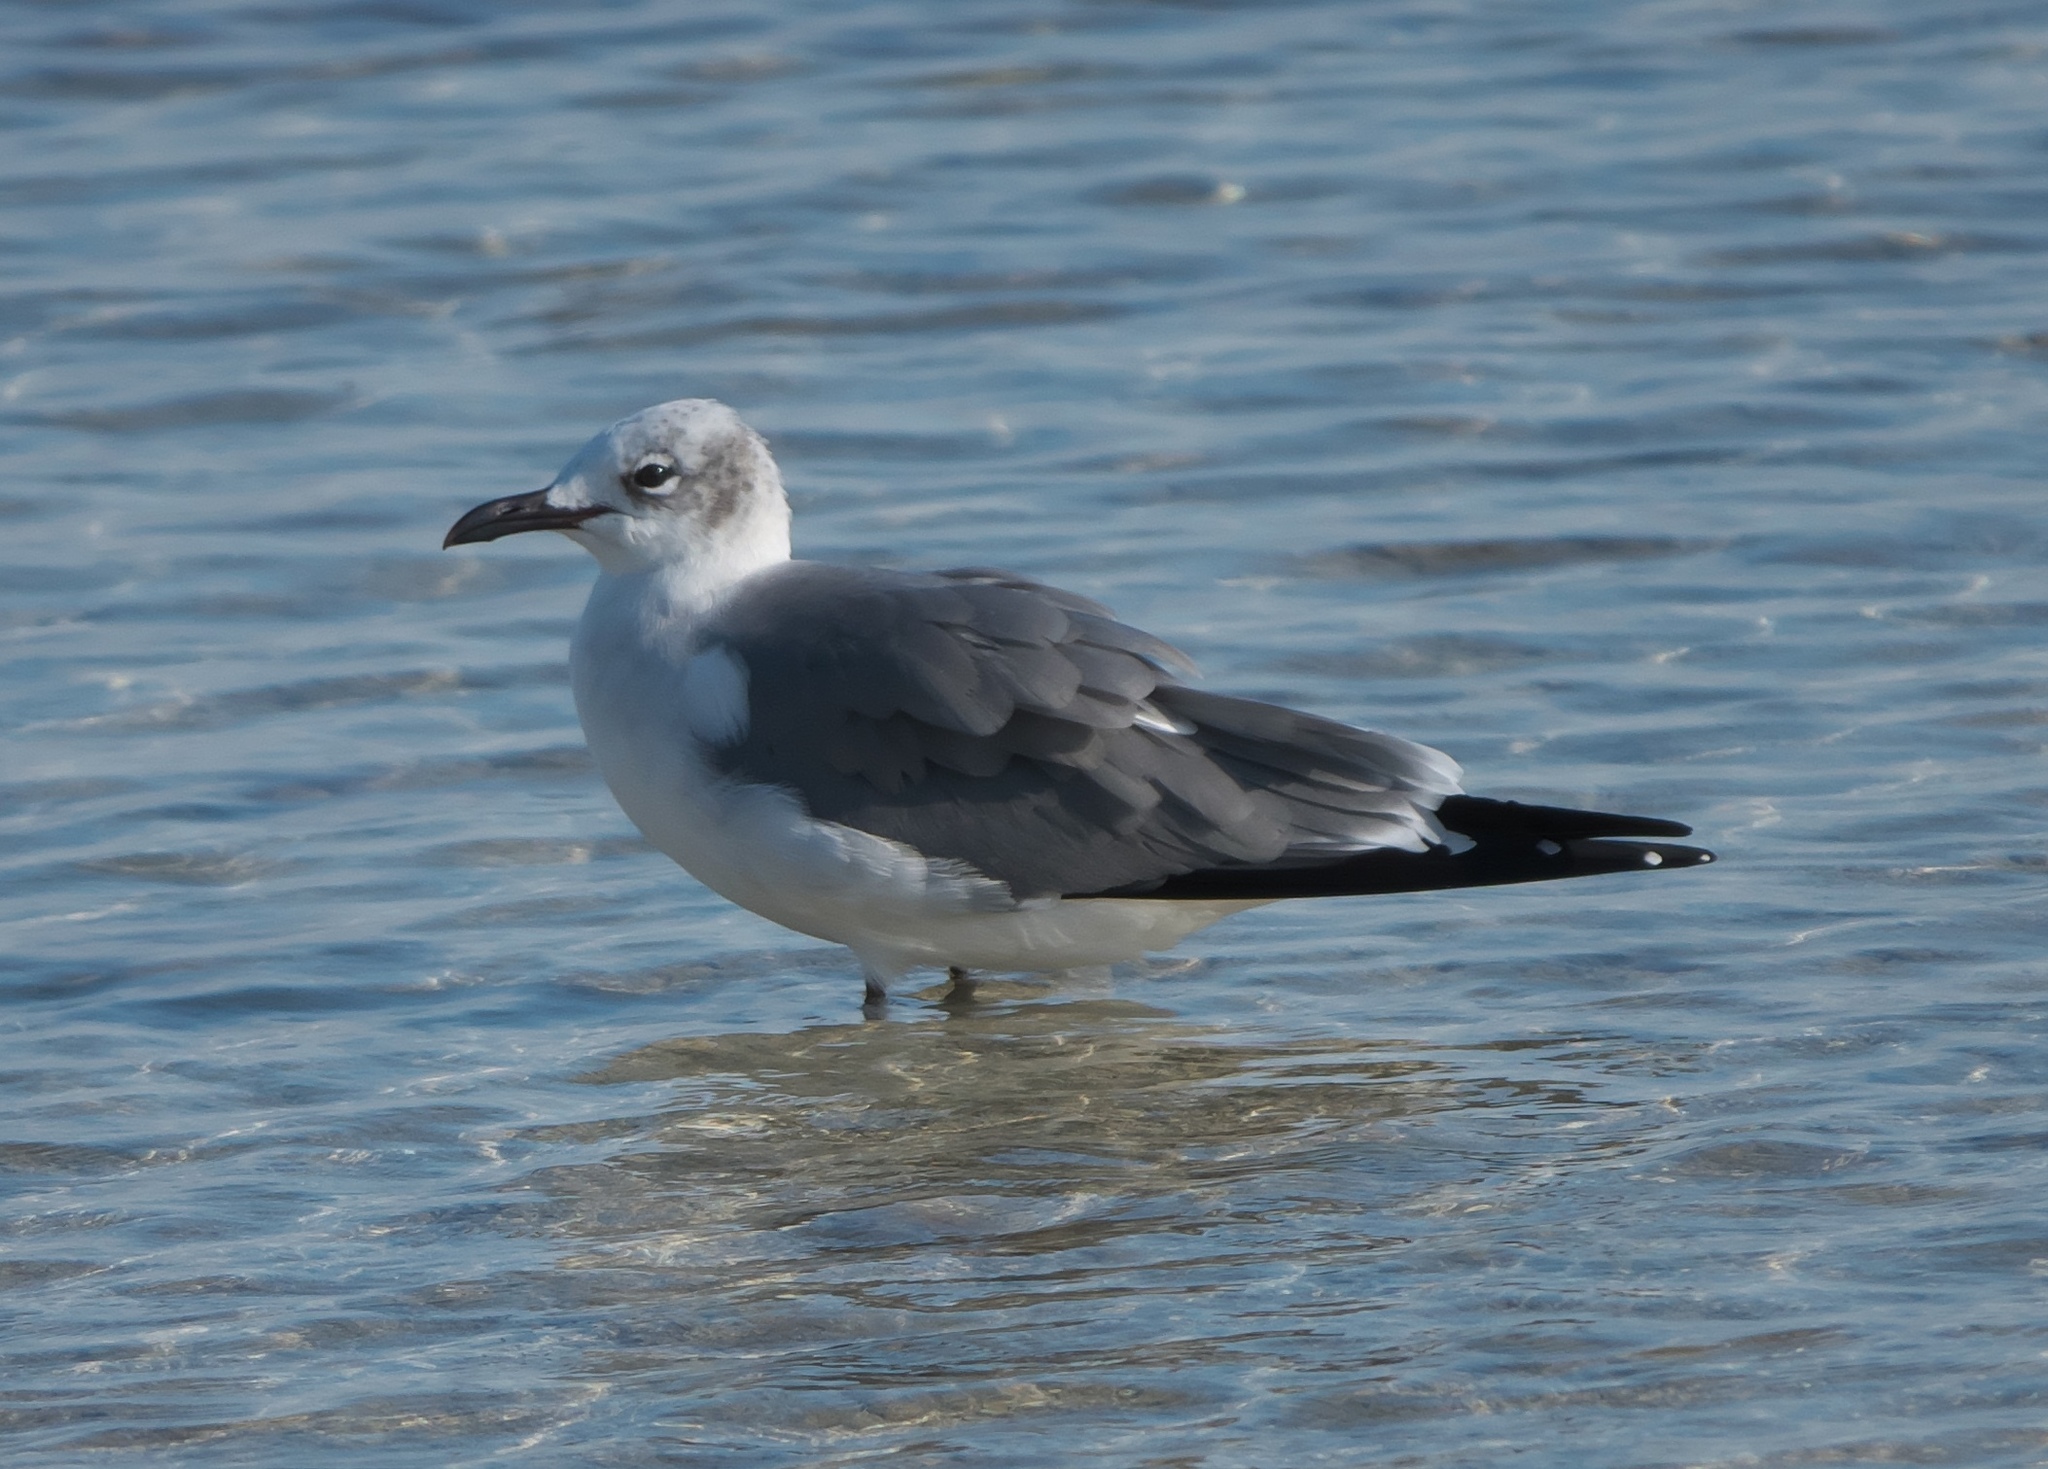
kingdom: Animalia
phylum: Chordata
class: Aves
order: Charadriiformes
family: Laridae
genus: Leucophaeus
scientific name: Leucophaeus atricilla
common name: Laughing gull
